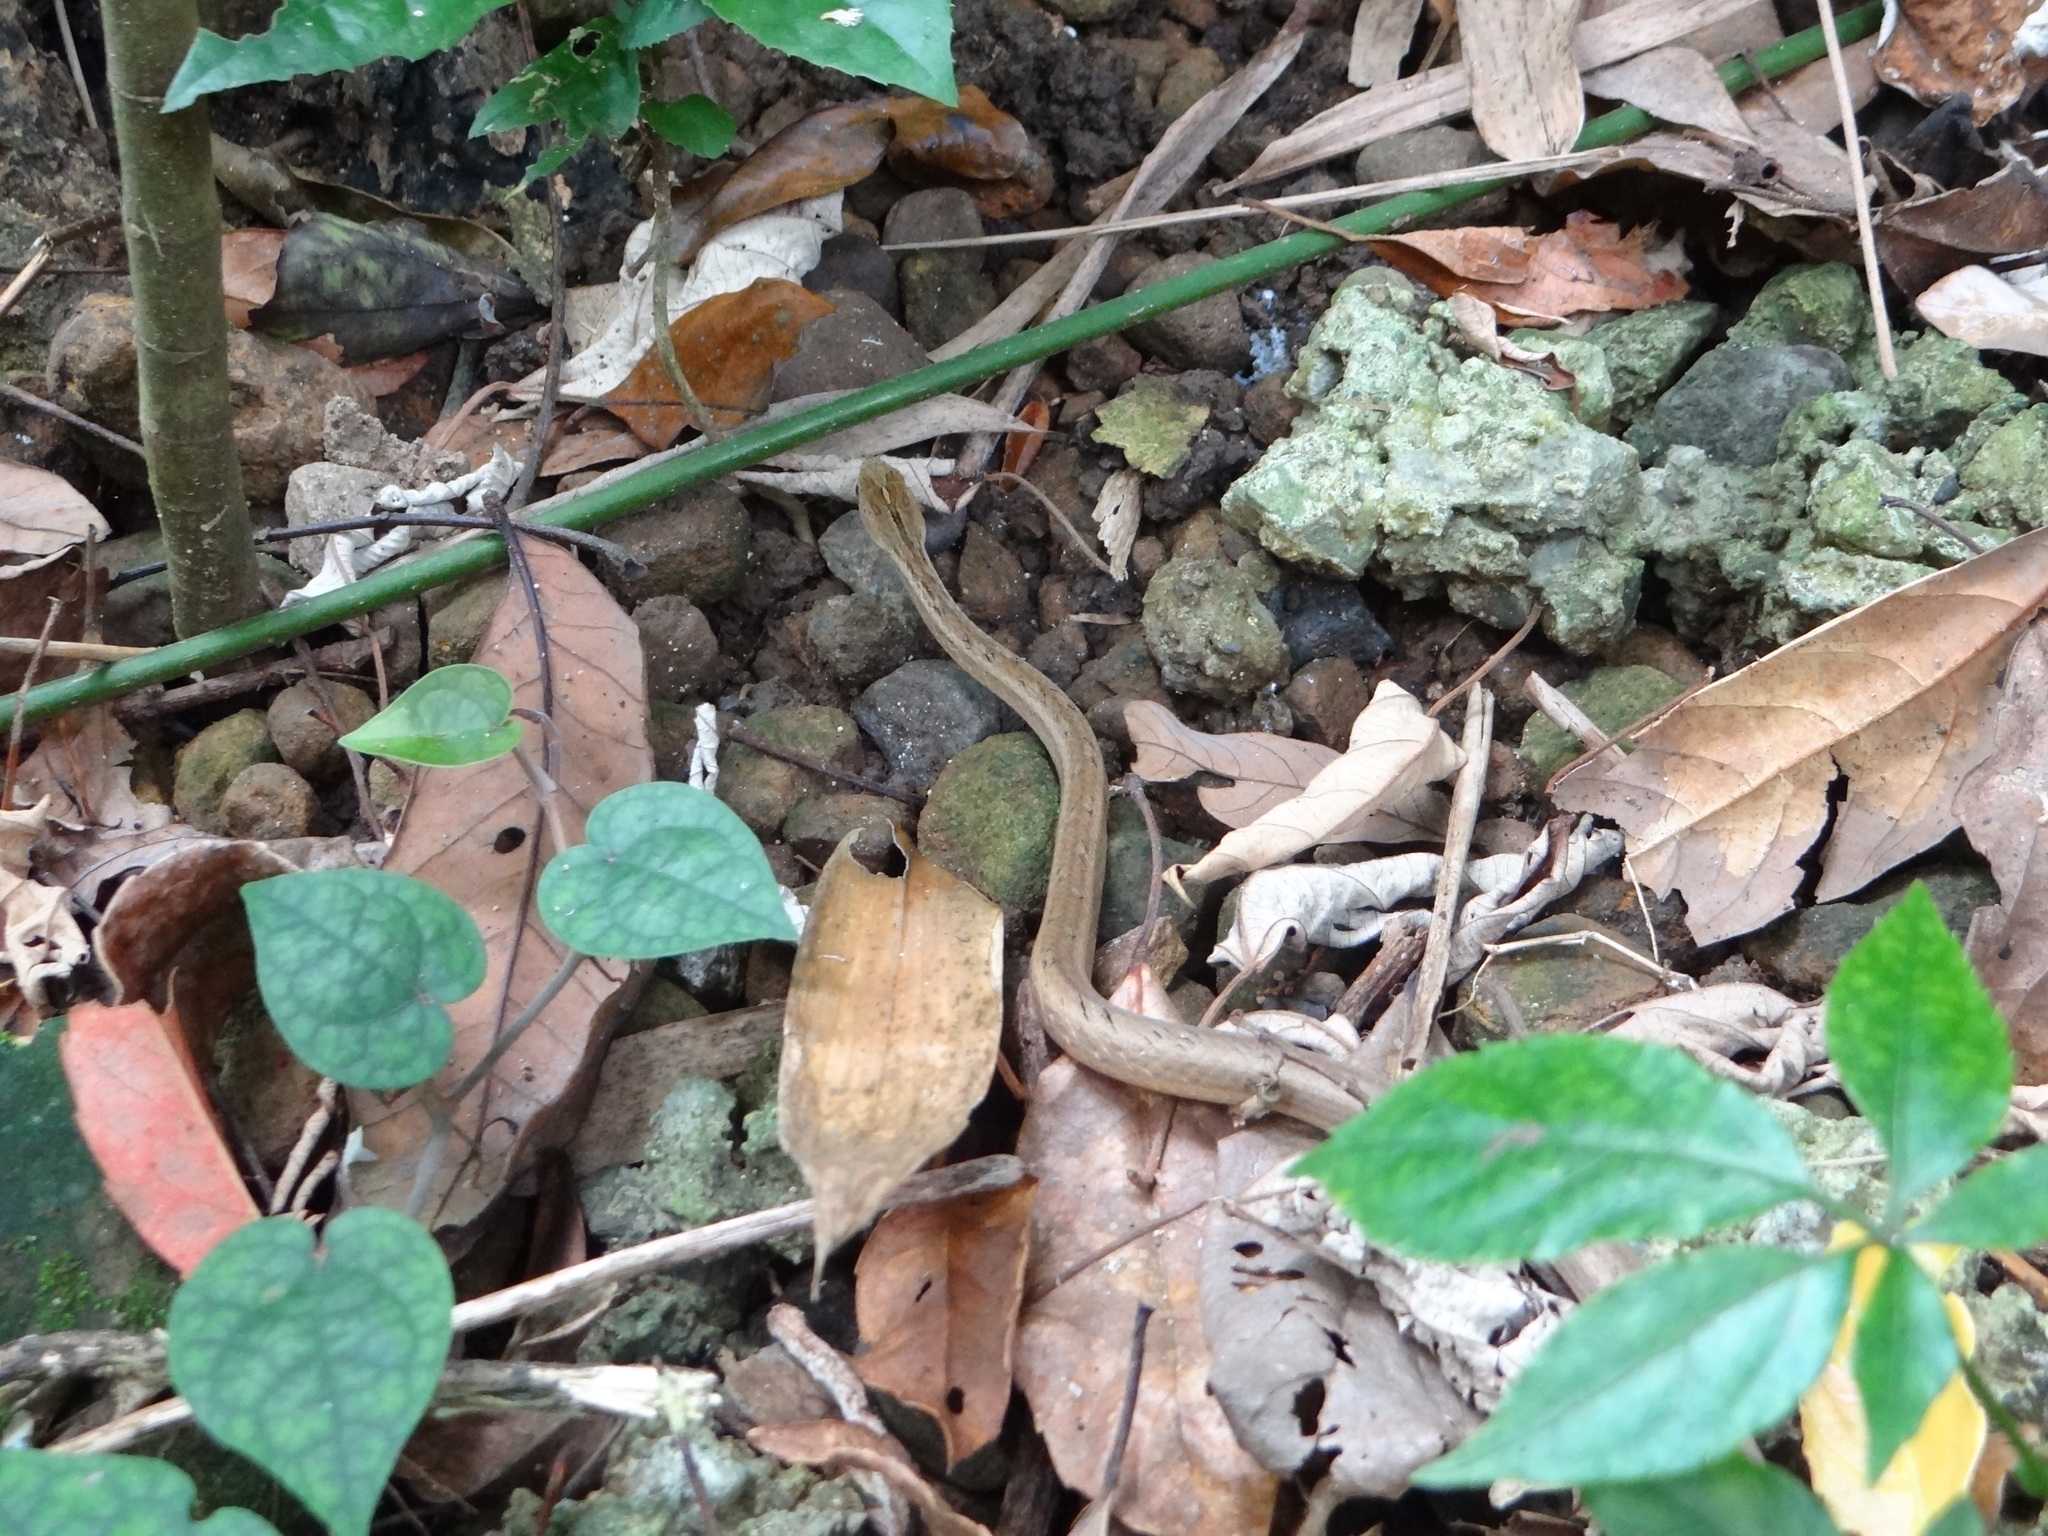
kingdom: Animalia
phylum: Chordata
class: Squamata
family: Pseudaspididae
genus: Psammodynastes
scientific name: Psammodynastes pulverulentus
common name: Common mock viper
